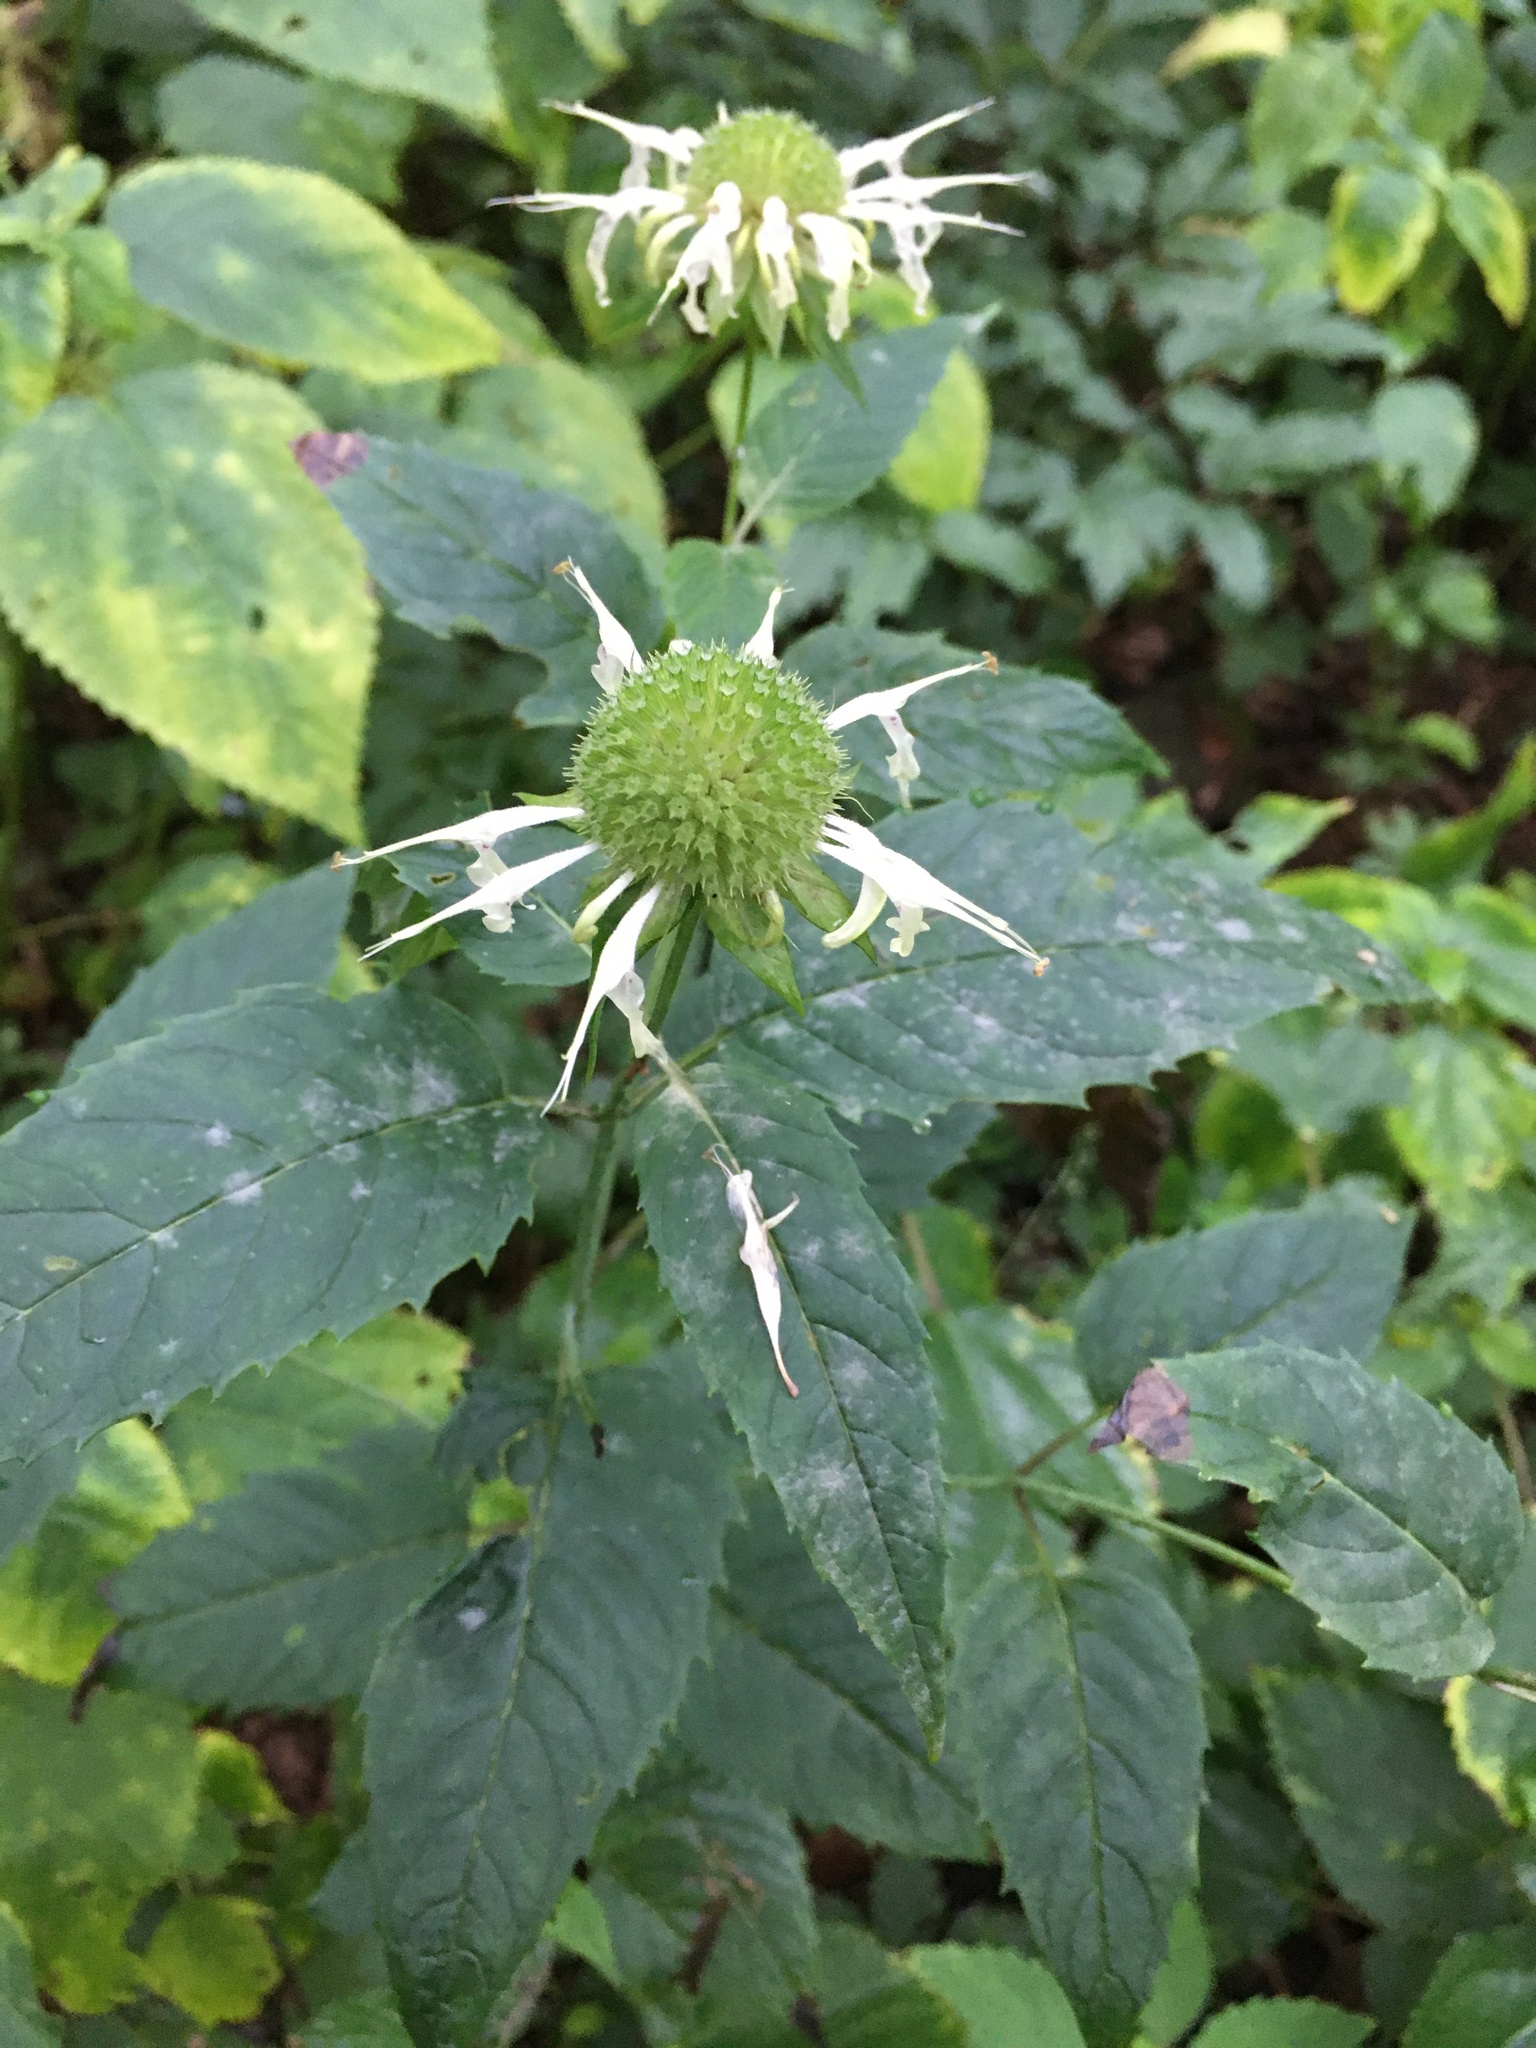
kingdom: Plantae
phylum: Tracheophyta
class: Magnoliopsida
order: Lamiales
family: Lamiaceae
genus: Monarda
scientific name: Monarda clinopodia
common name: Basil beebalm
